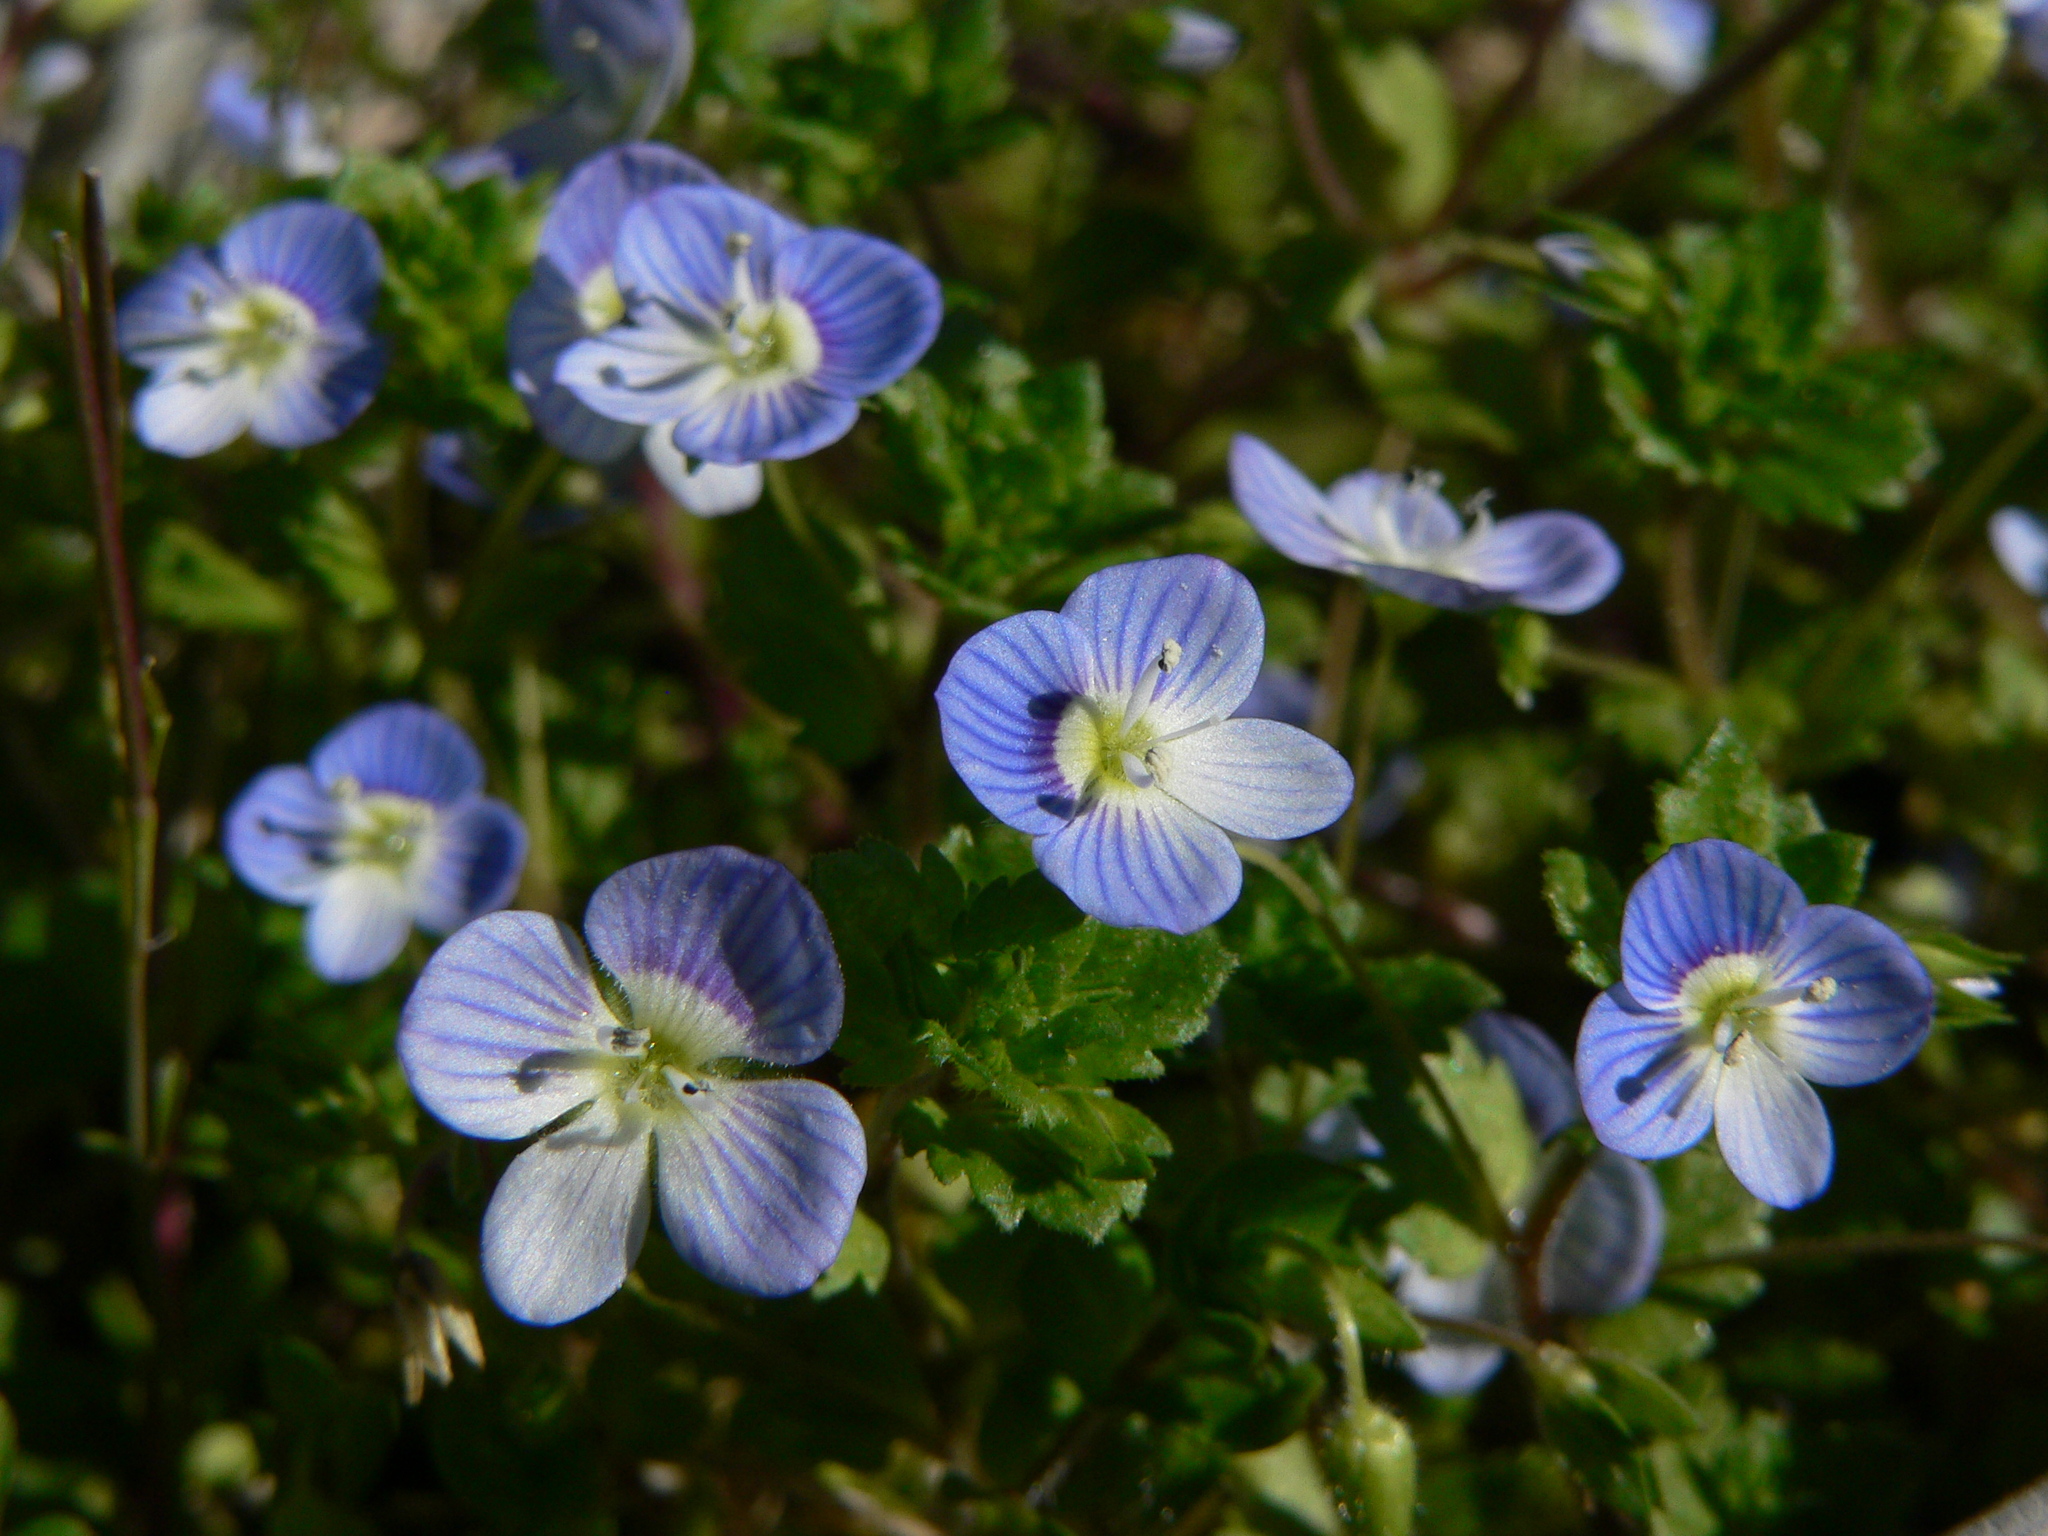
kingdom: Plantae
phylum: Tracheophyta
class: Magnoliopsida
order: Lamiales
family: Plantaginaceae
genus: Veronica
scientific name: Veronica persica
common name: Common field-speedwell
